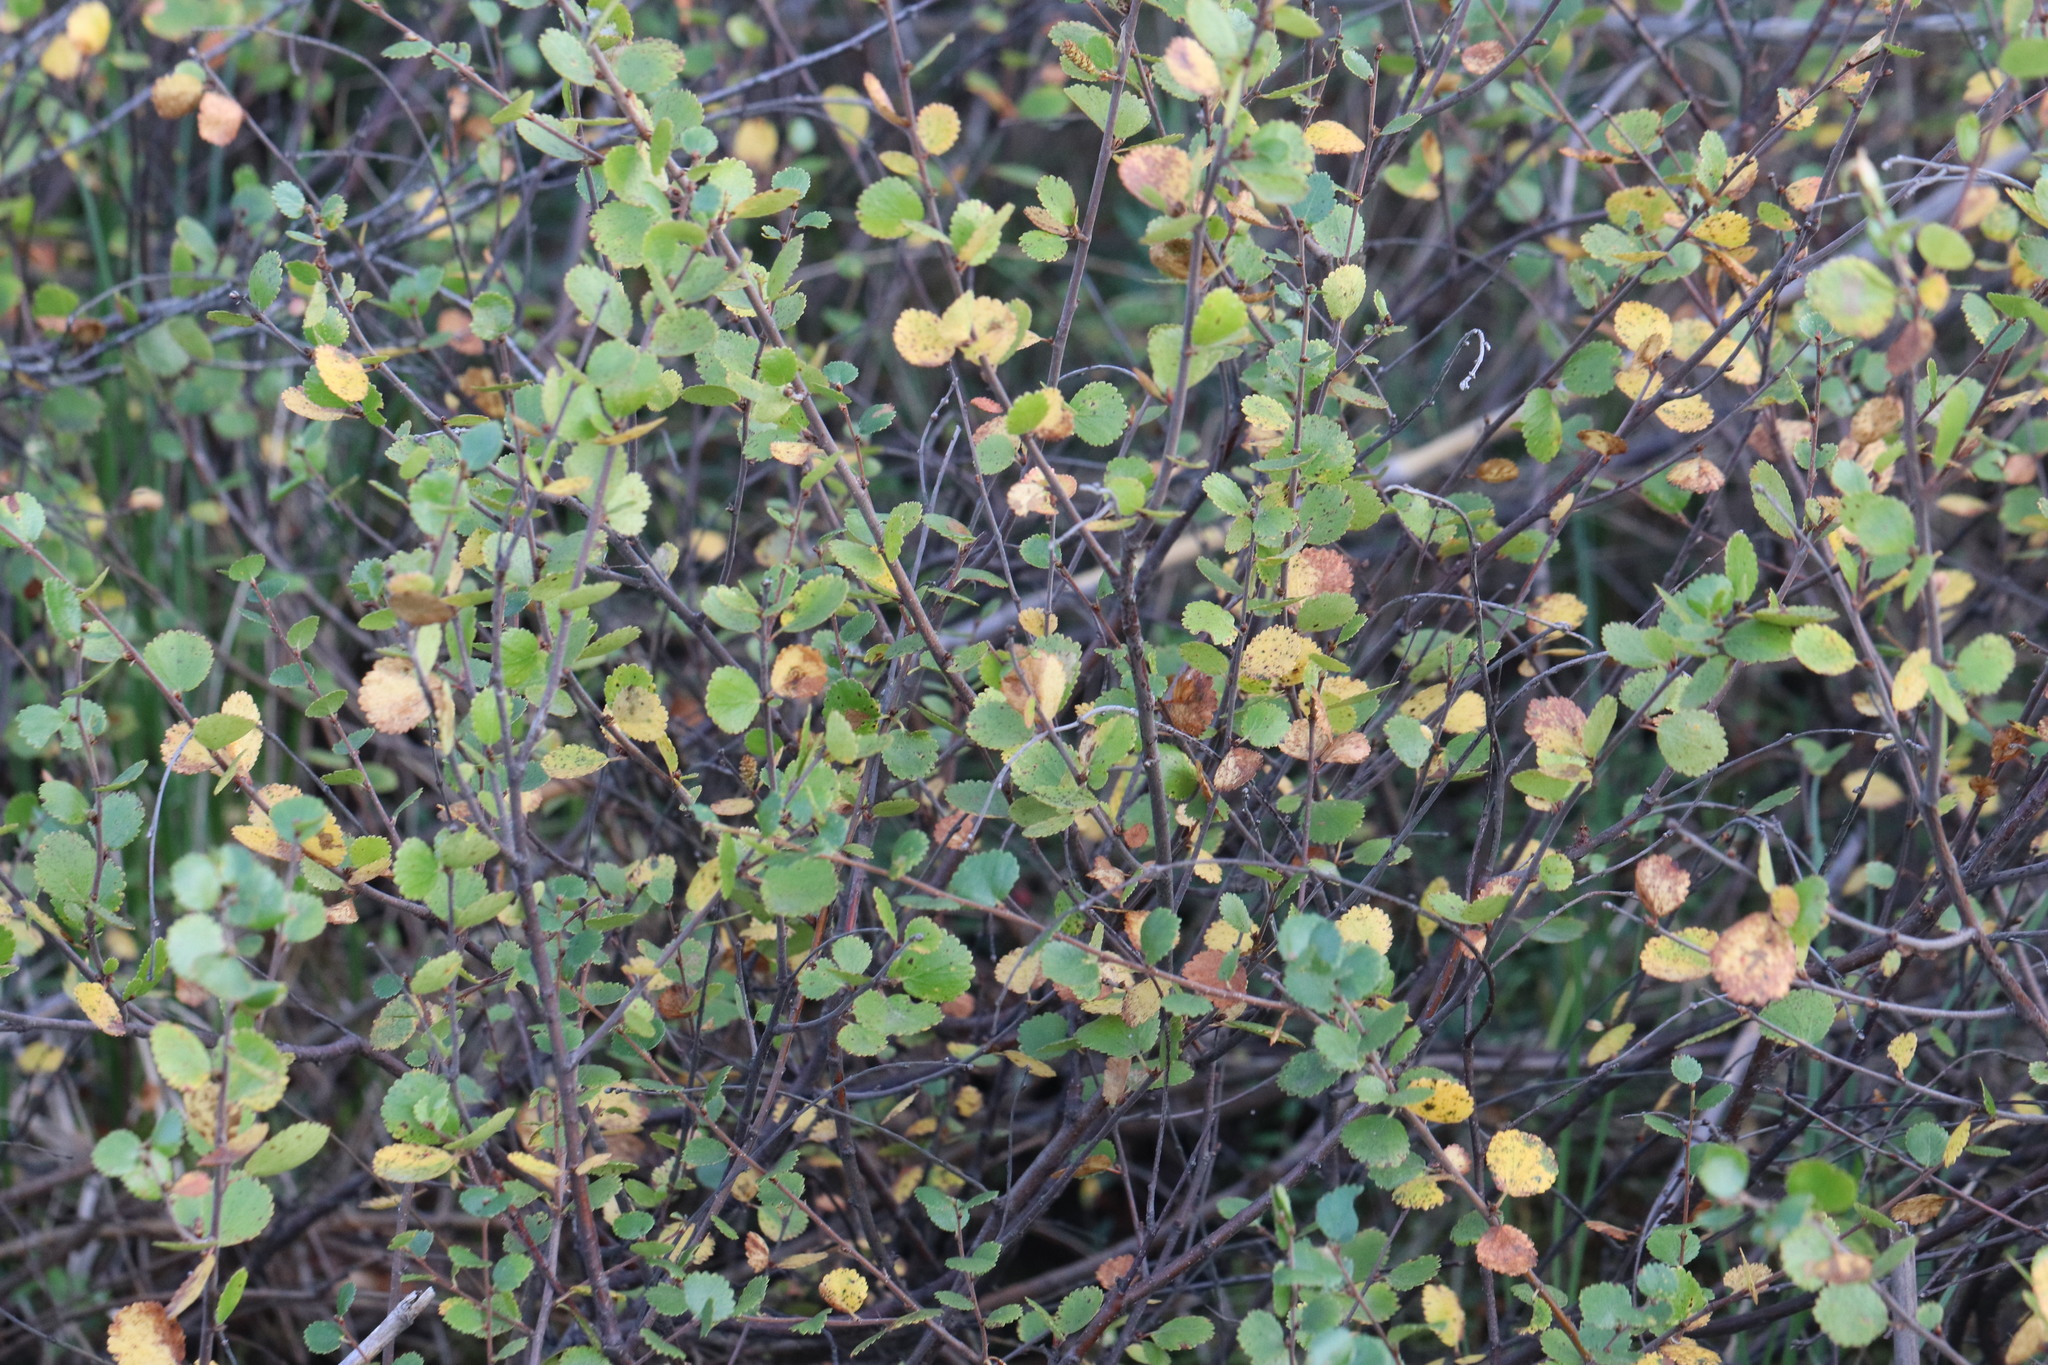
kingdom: Plantae
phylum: Tracheophyta
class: Magnoliopsida
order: Fagales
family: Betulaceae
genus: Betula
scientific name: Betula nana
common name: Arctic dwarf birch
